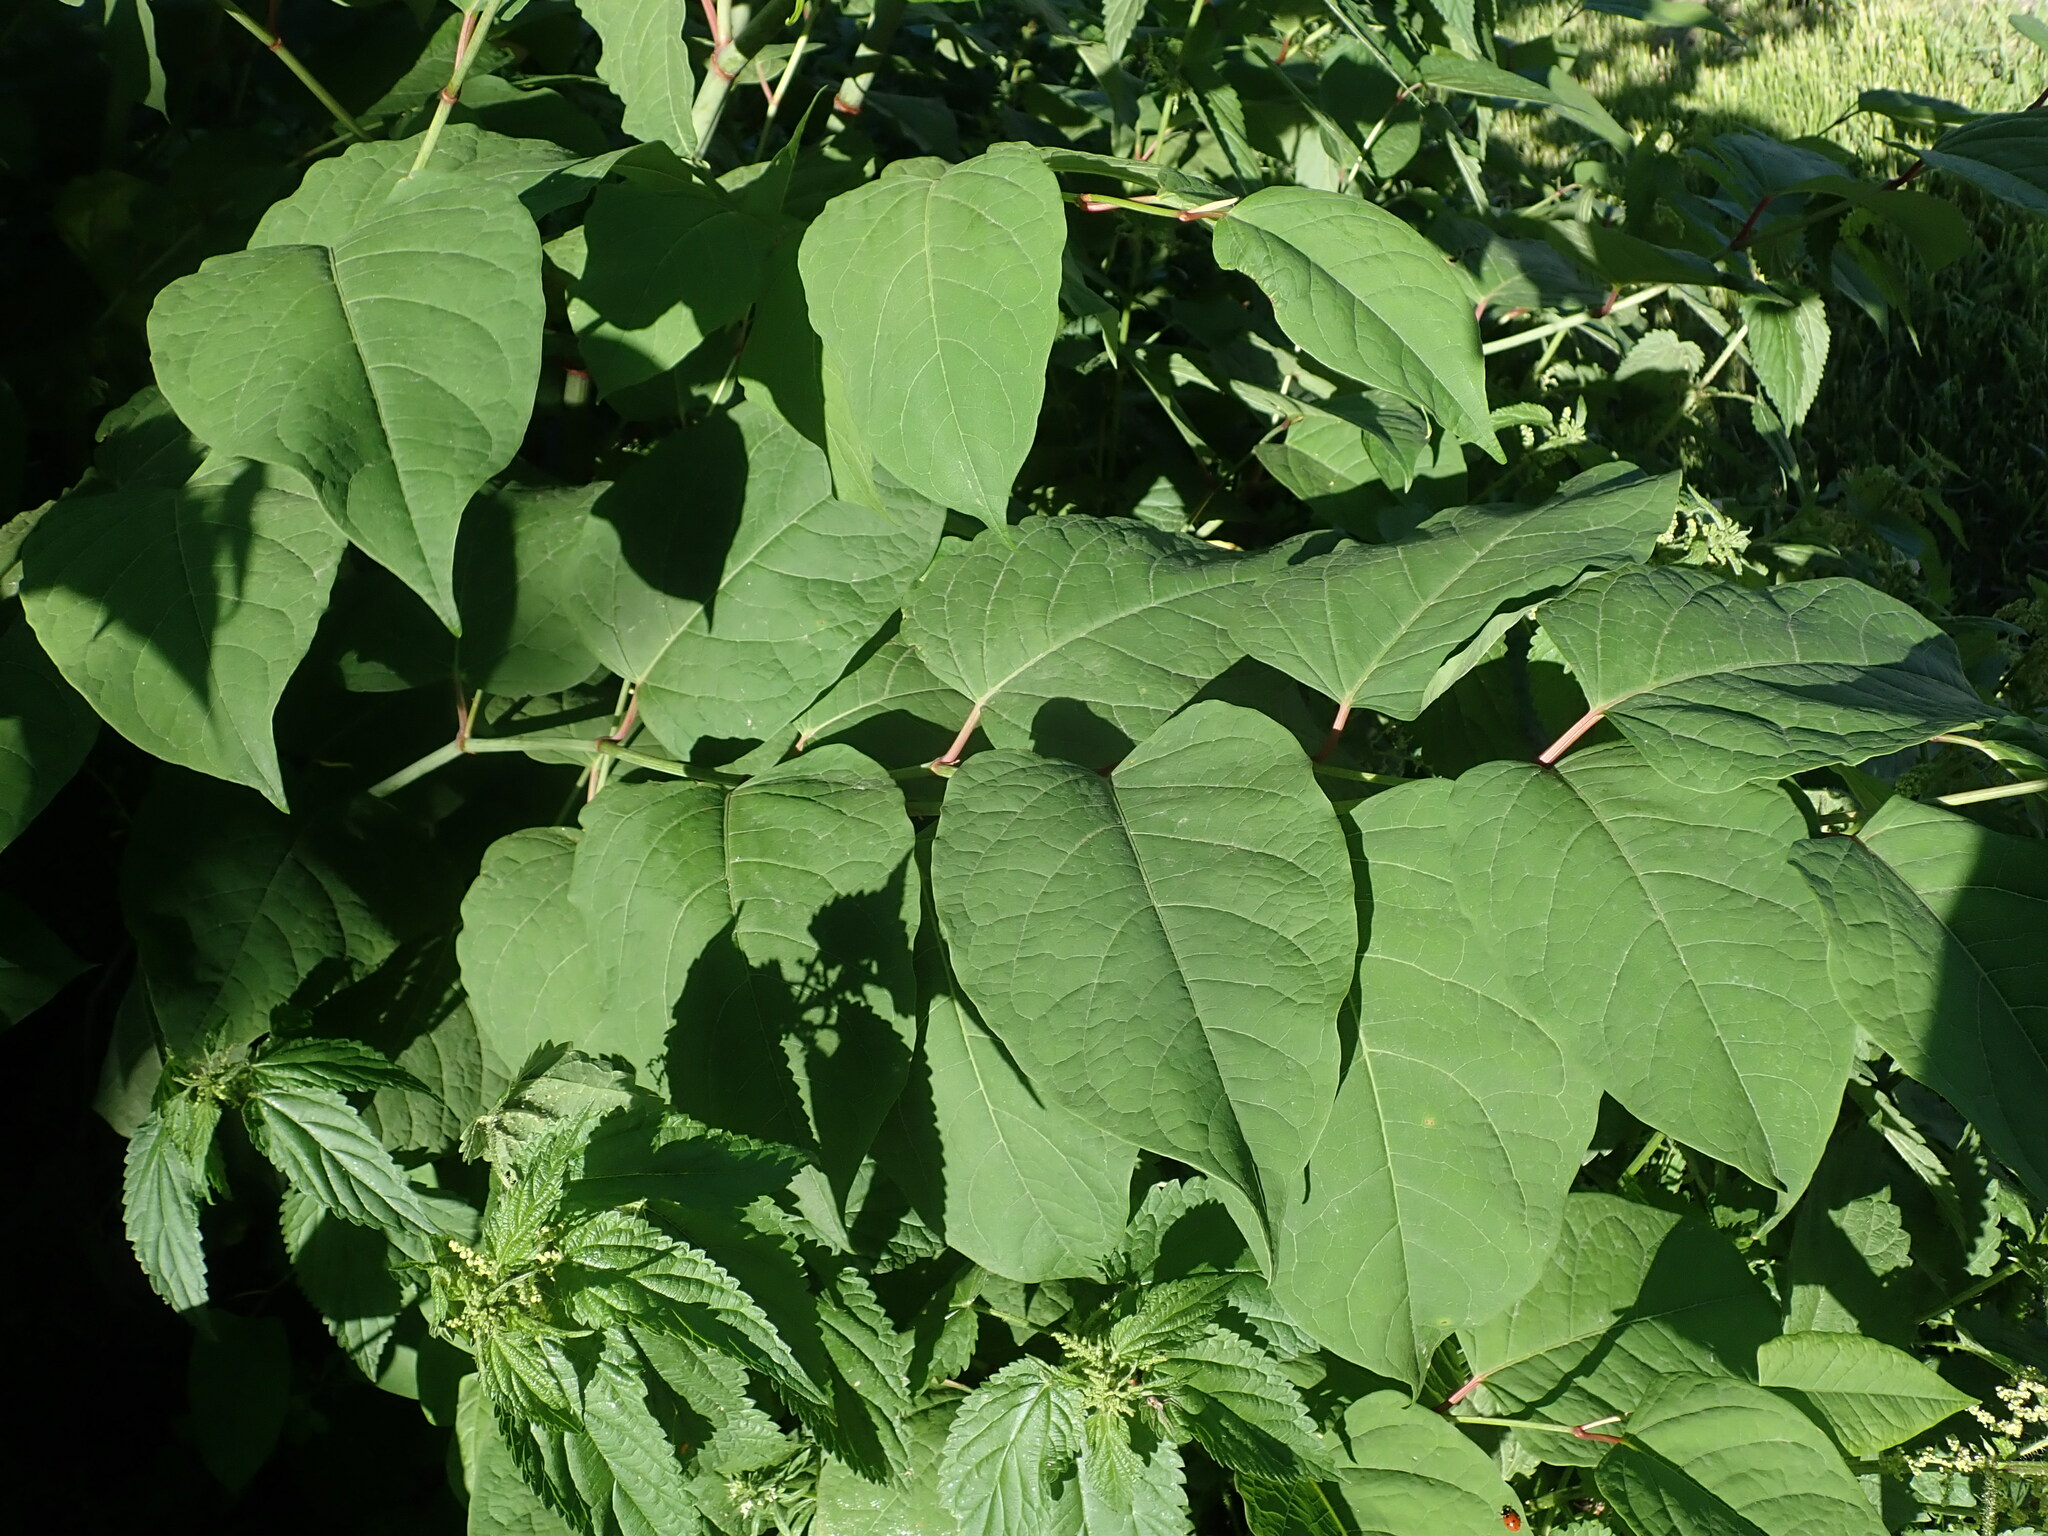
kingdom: Plantae
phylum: Tracheophyta
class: Magnoliopsida
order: Caryophyllales
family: Polygonaceae
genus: Reynoutria
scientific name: Reynoutria bohemica
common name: Bohemian knotweed
